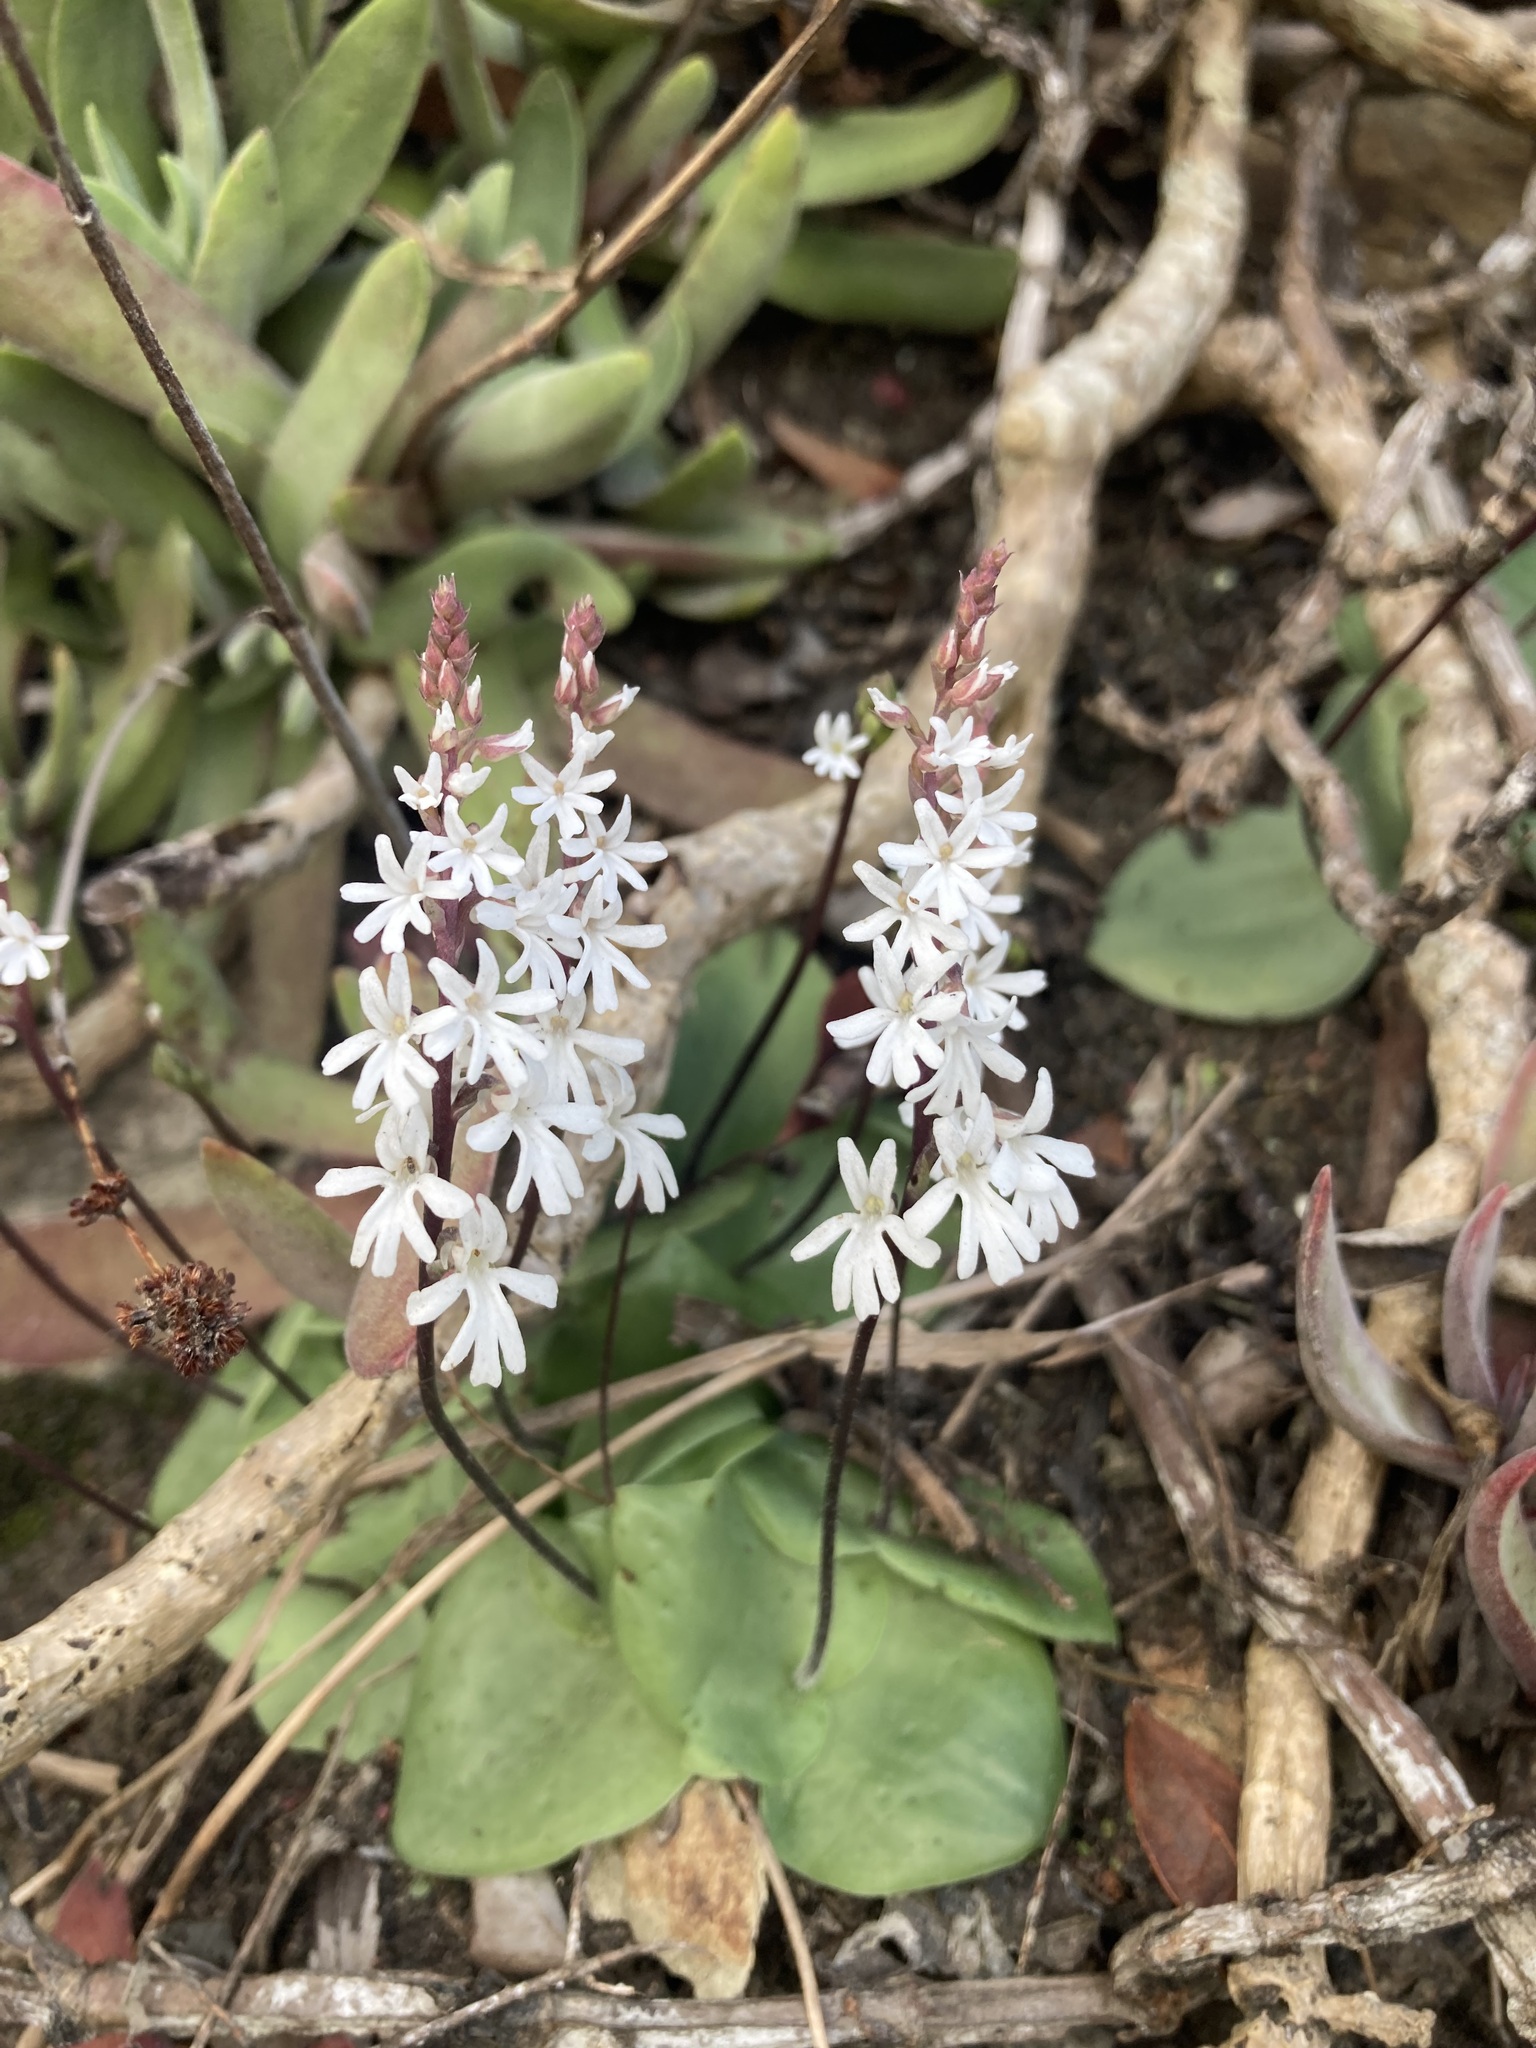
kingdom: Plantae
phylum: Tracheophyta
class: Liliopsida
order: Asparagales
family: Orchidaceae
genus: Holothrix
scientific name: Holothrix parviflora
